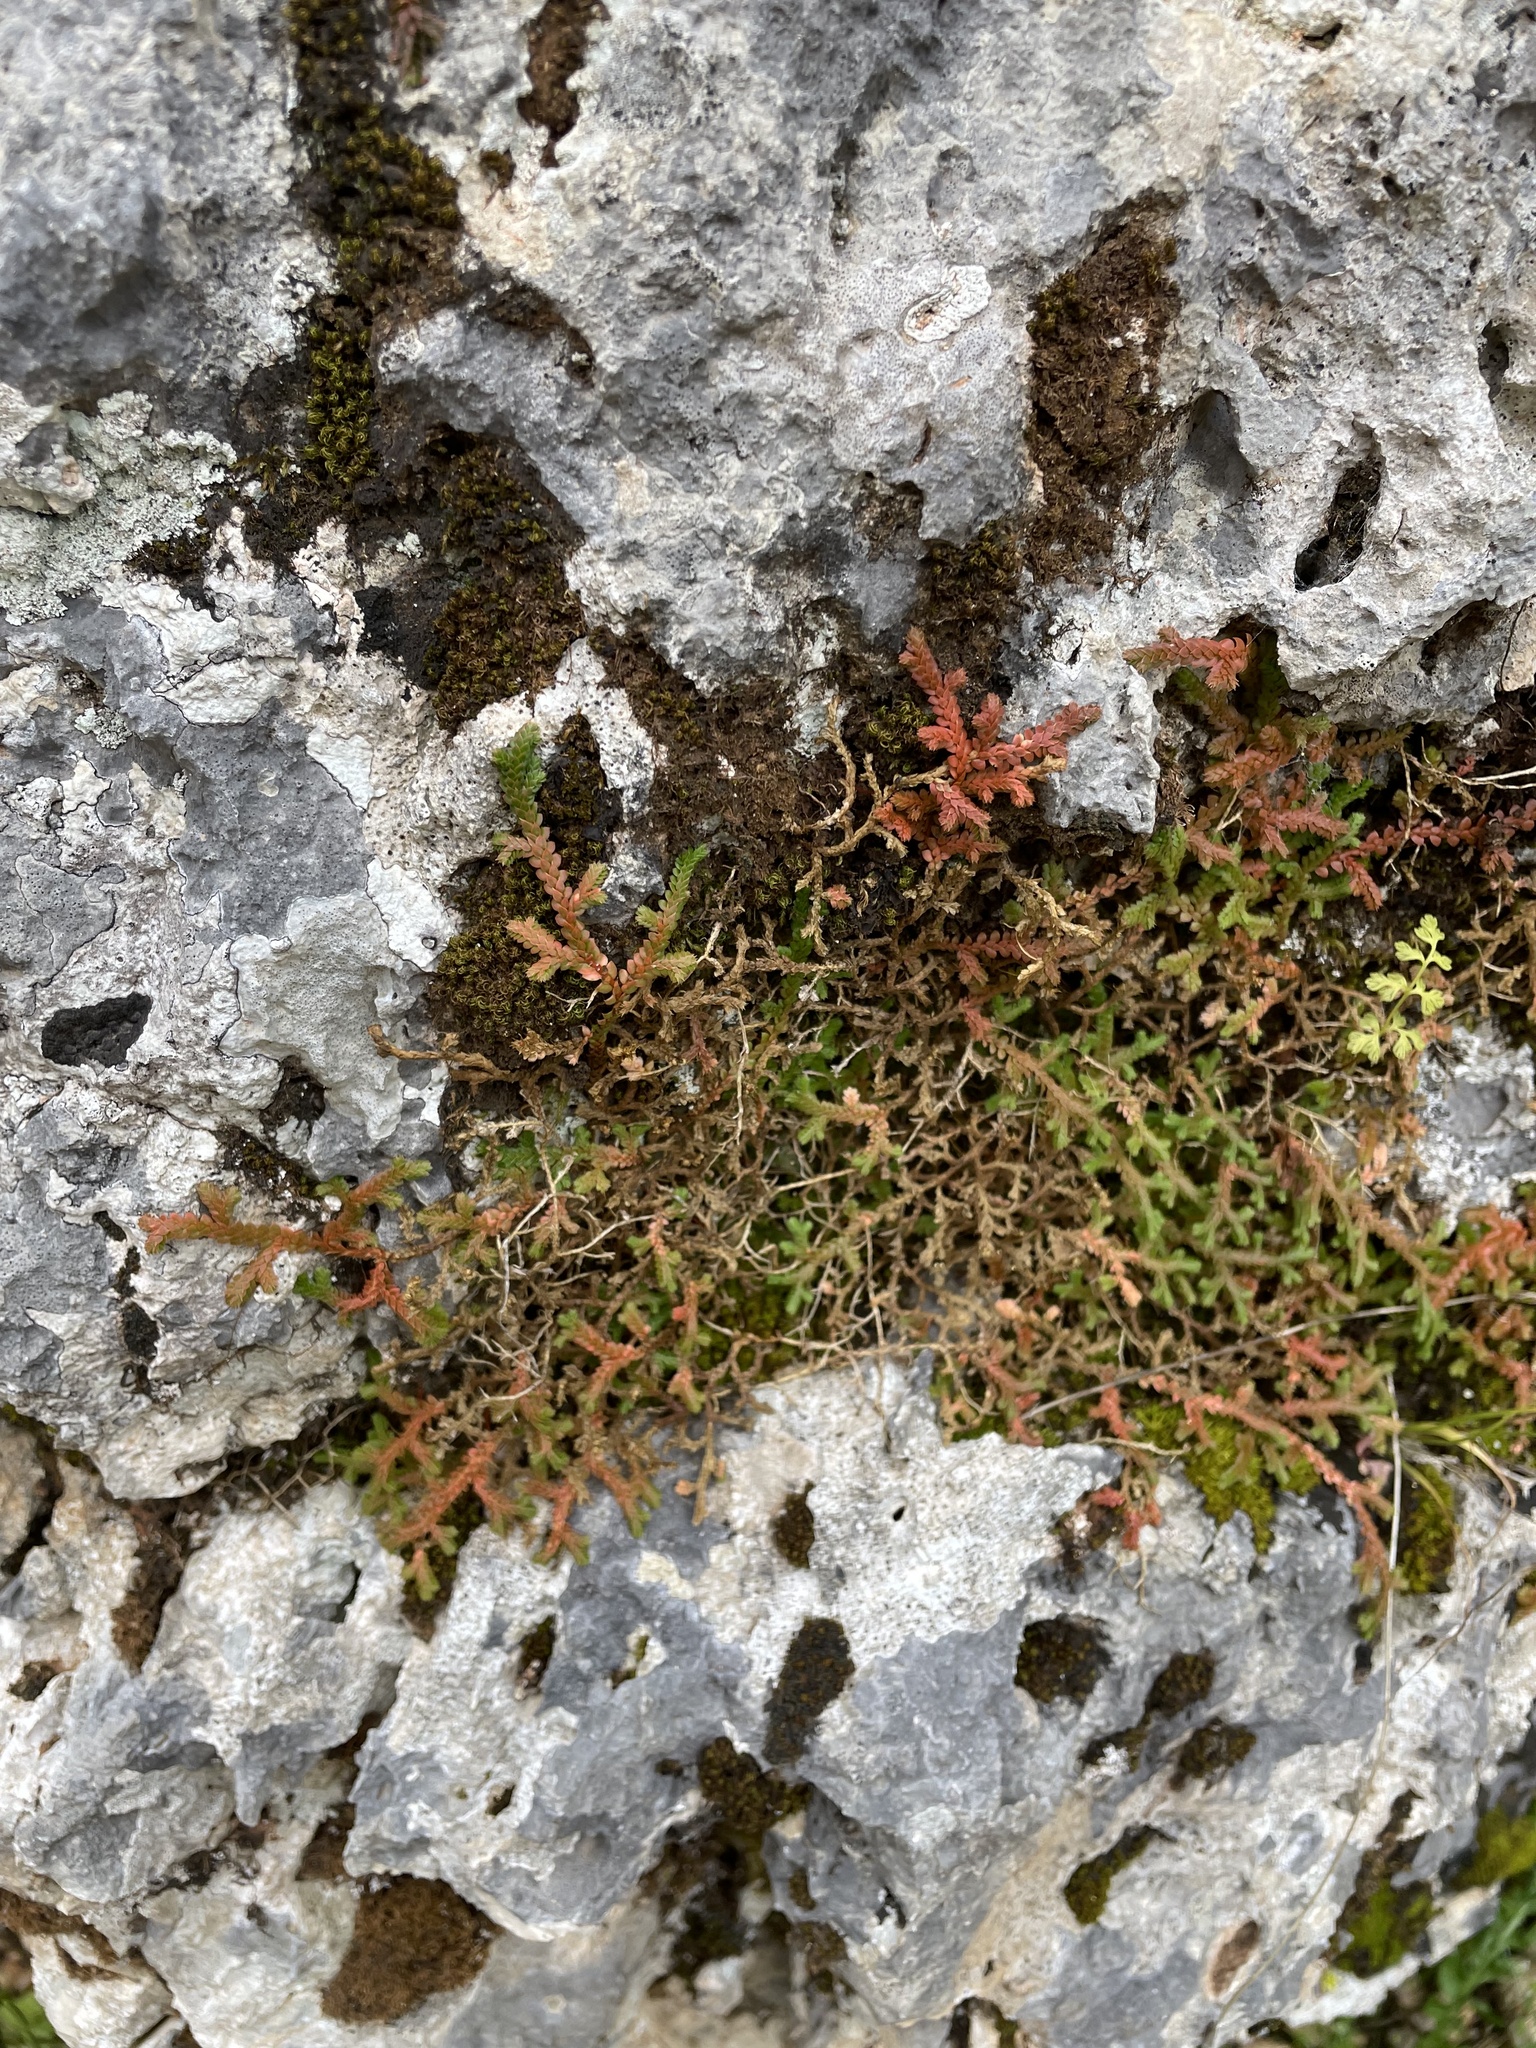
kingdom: Plantae
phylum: Tracheophyta
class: Lycopodiopsida
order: Selaginellales
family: Selaginellaceae
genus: Selaginella
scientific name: Selaginella denticulata
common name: Toothed-leaved clubmoss
